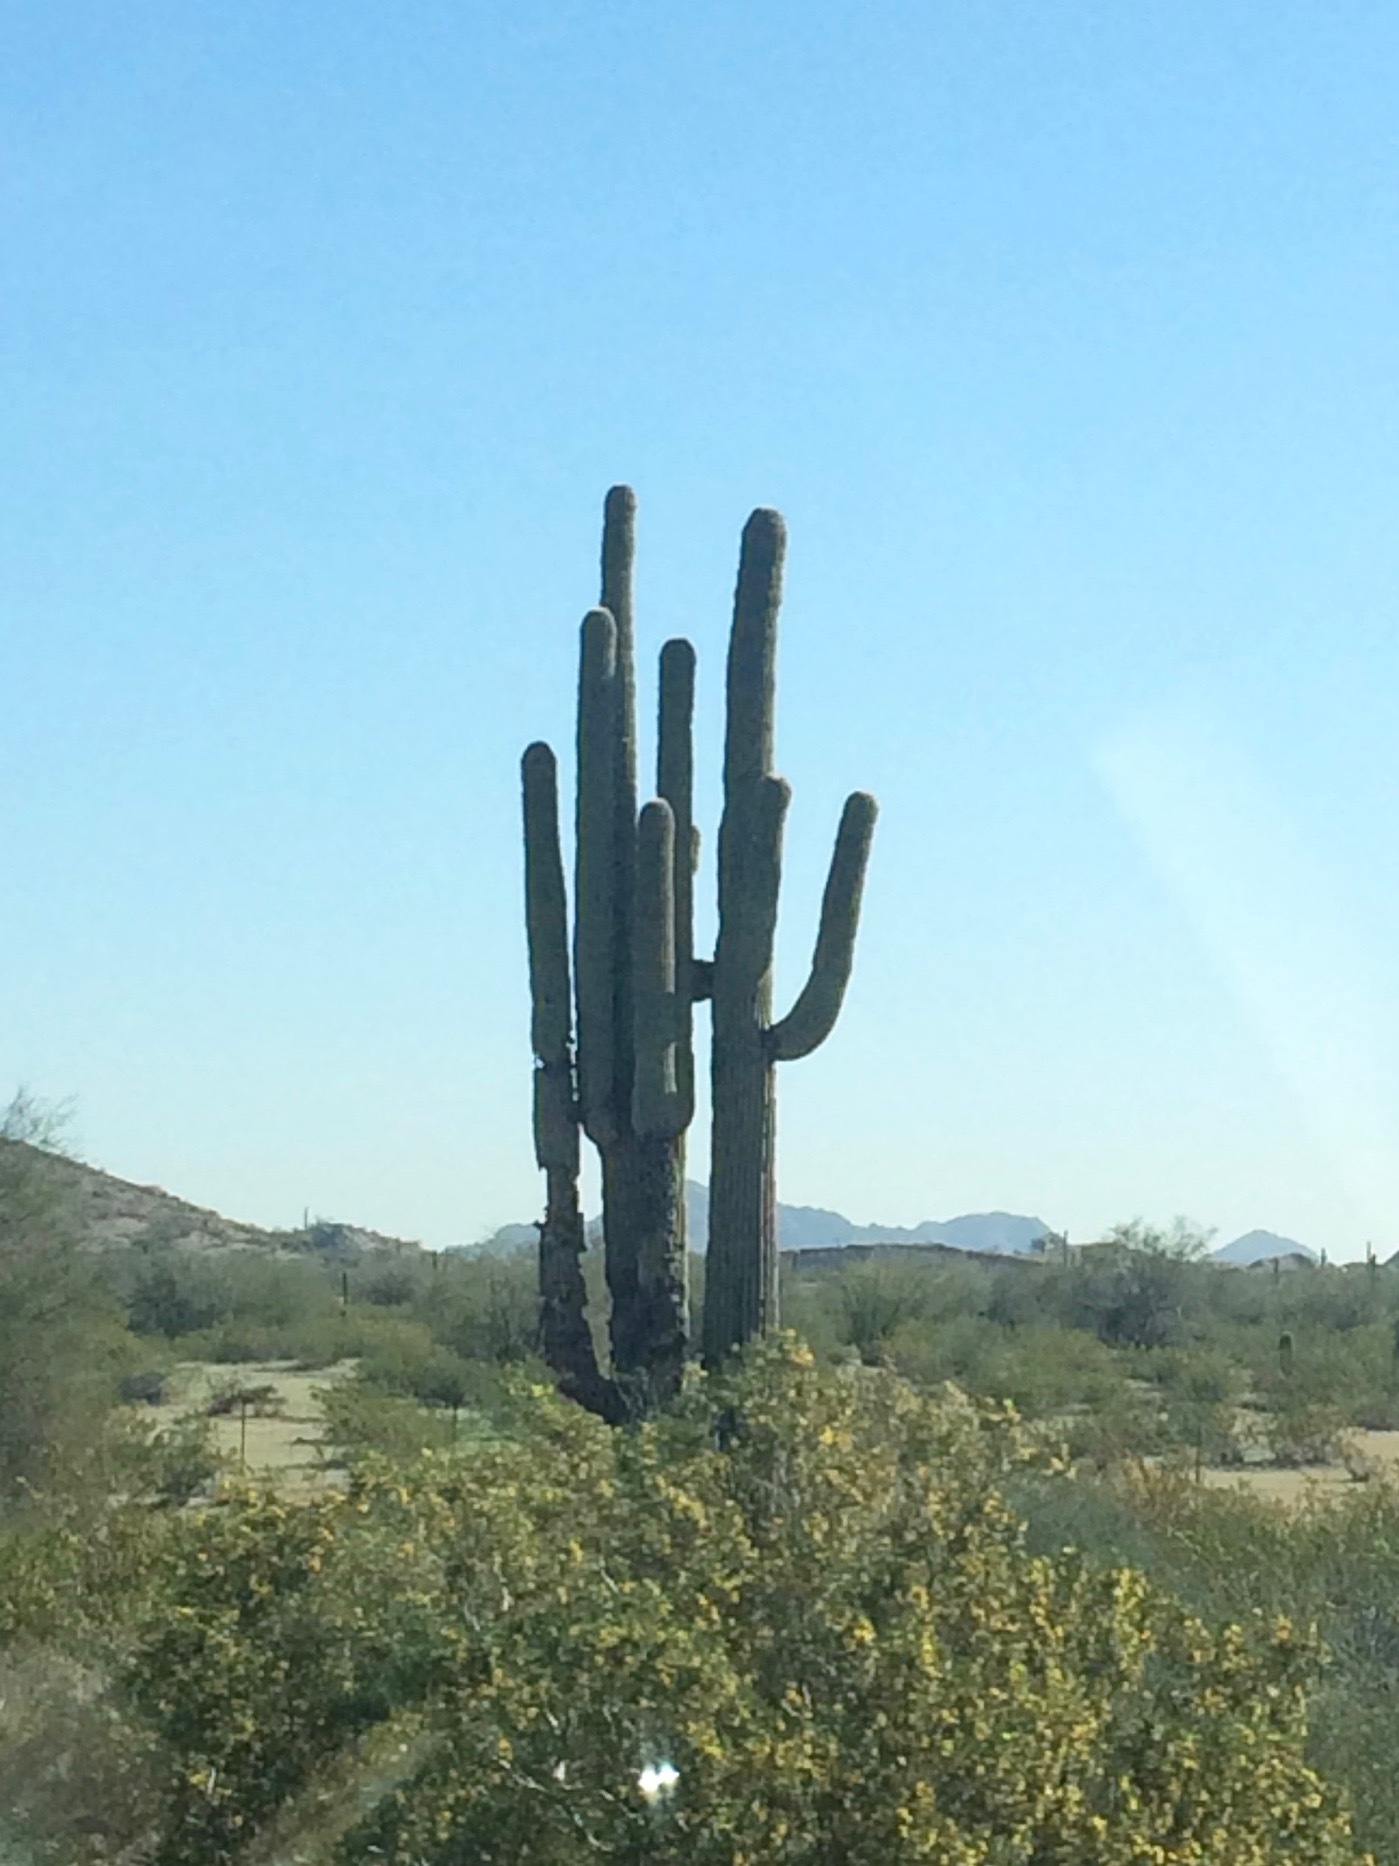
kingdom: Plantae
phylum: Tracheophyta
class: Magnoliopsida
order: Caryophyllales
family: Cactaceae
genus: Carnegiea
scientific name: Carnegiea gigantea
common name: Saguaro
